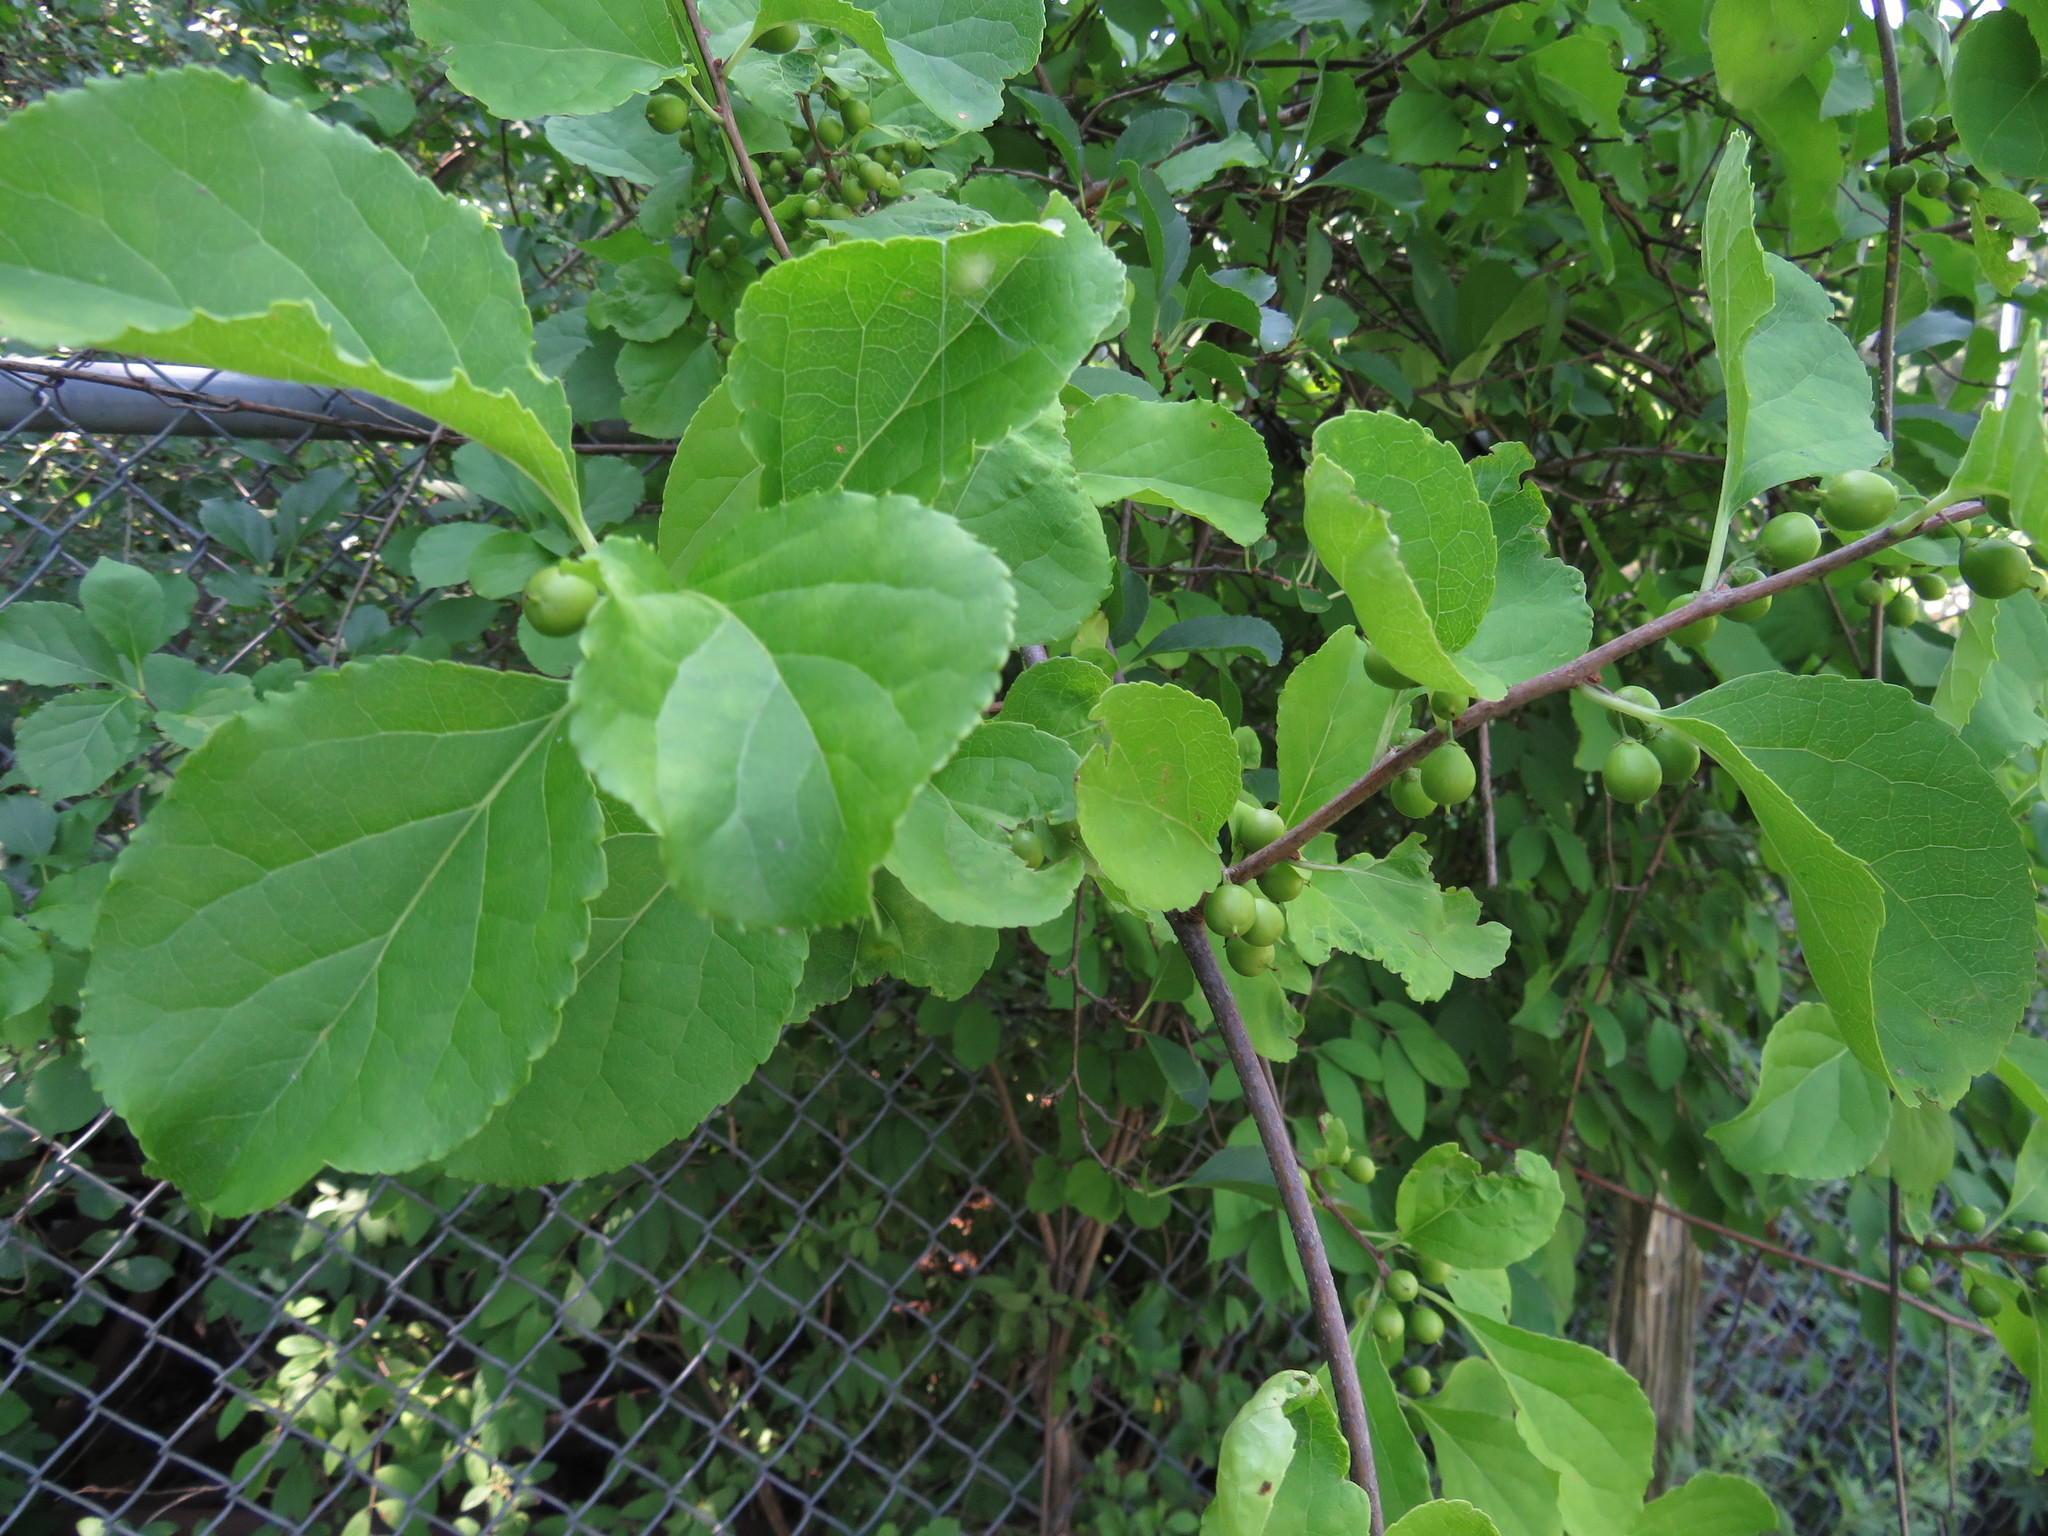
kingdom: Plantae
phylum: Tracheophyta
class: Magnoliopsida
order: Celastrales
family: Celastraceae
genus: Celastrus
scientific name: Celastrus orbiculatus
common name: Oriental bittersweet
